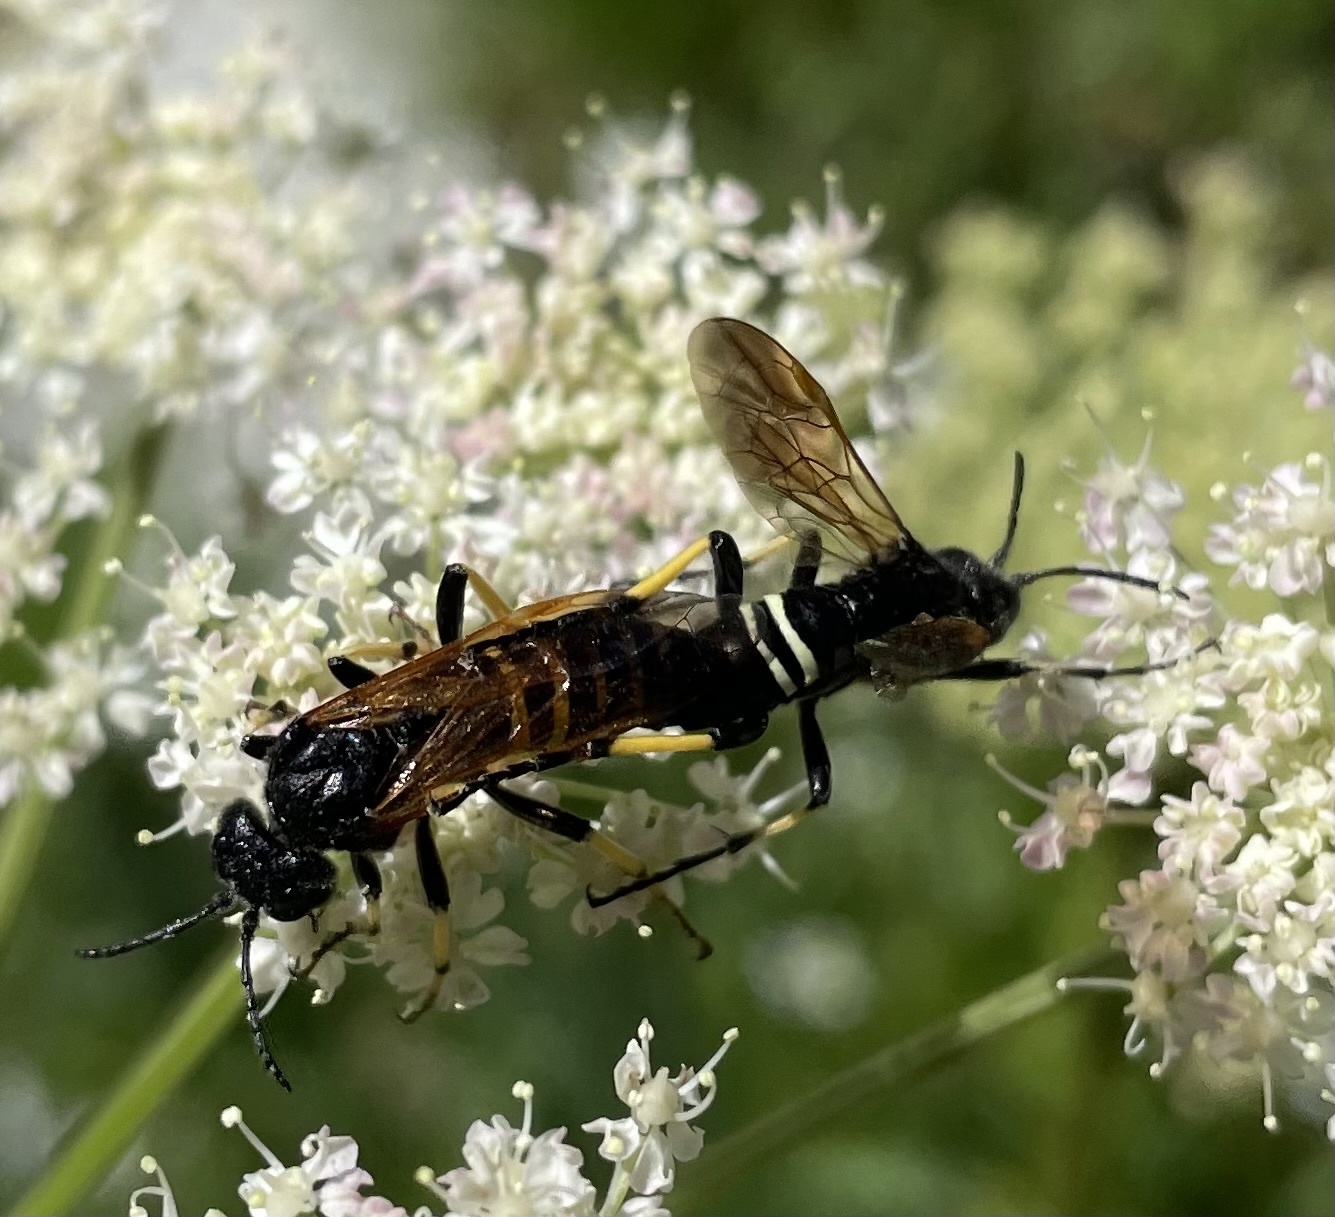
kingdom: Animalia
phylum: Arthropoda
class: Insecta
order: Hymenoptera
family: Tenthredinidae
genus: Tenthredo
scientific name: Tenthredo segmentaria
